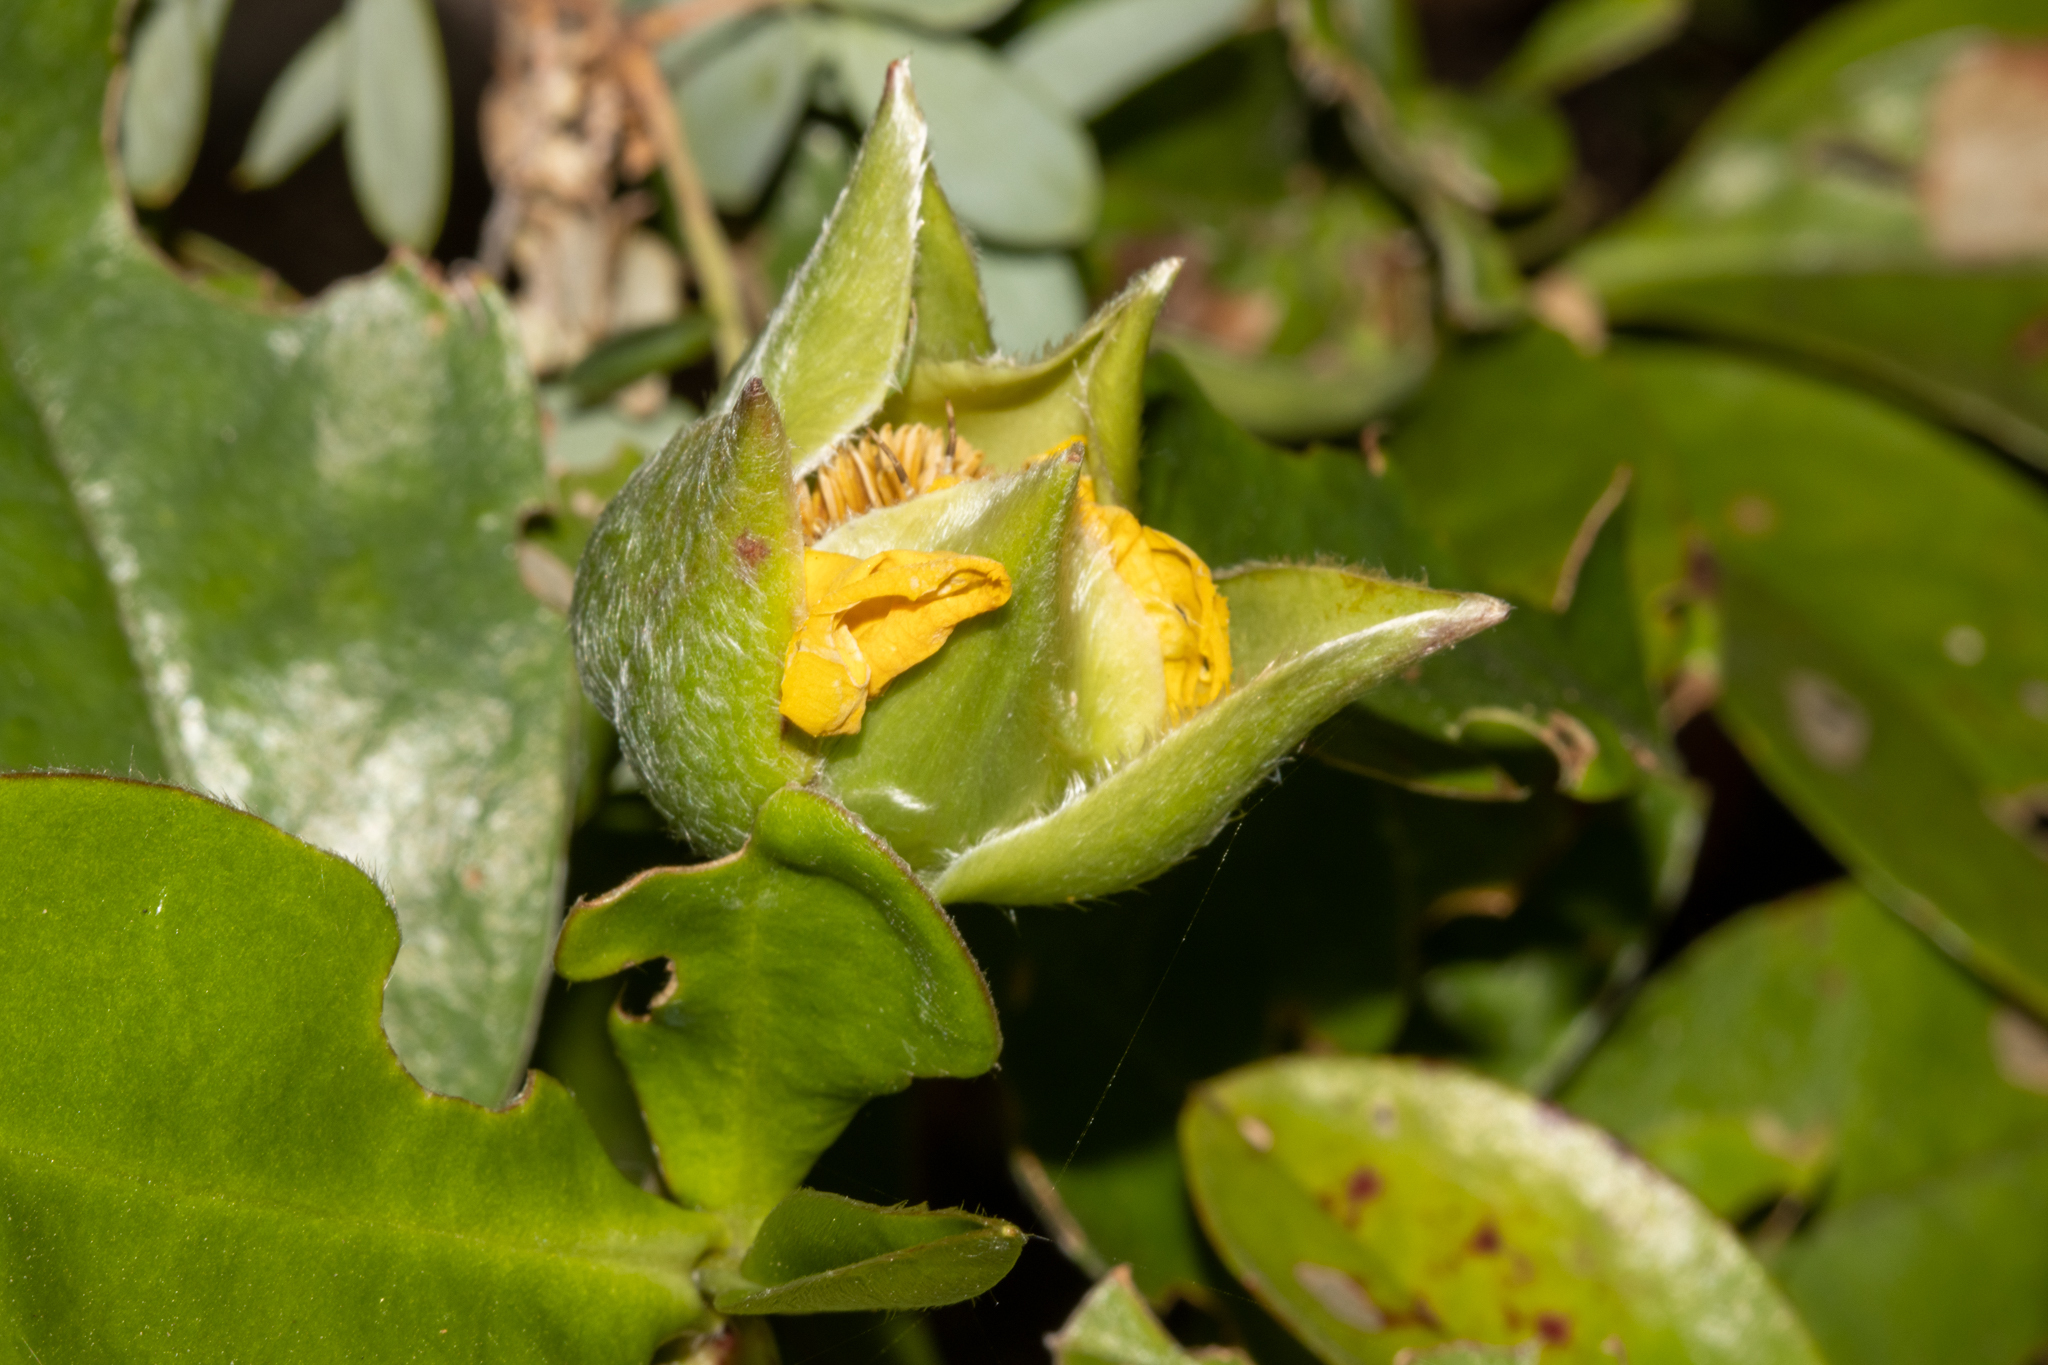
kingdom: Plantae
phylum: Tracheophyta
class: Magnoliopsida
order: Dilleniales
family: Dilleniaceae
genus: Hibbertia
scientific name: Hibbertia scandens
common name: Climbing guinea-flower
